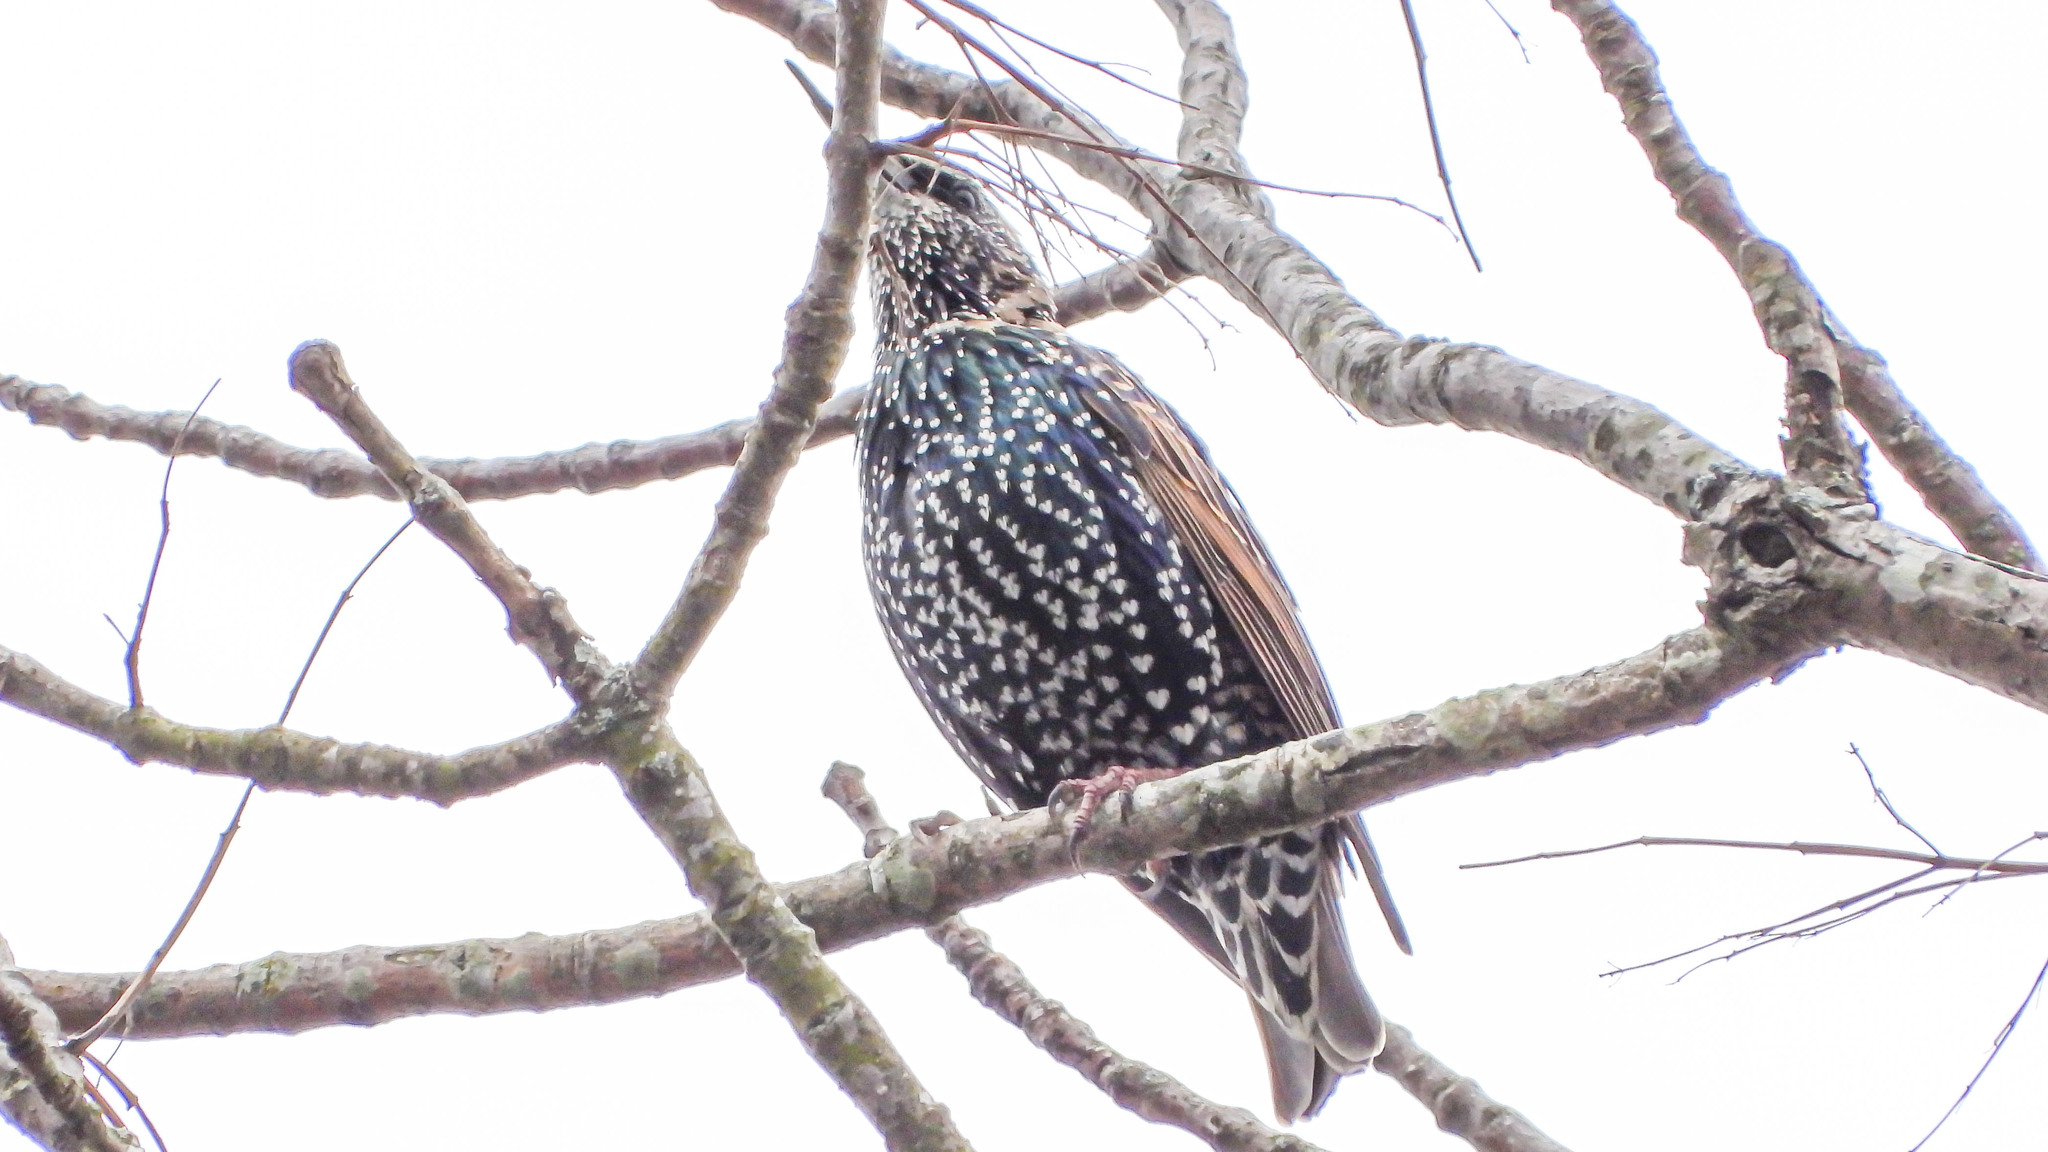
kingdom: Animalia
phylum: Chordata
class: Aves
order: Passeriformes
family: Sturnidae
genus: Sturnus
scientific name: Sturnus vulgaris
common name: Common starling
